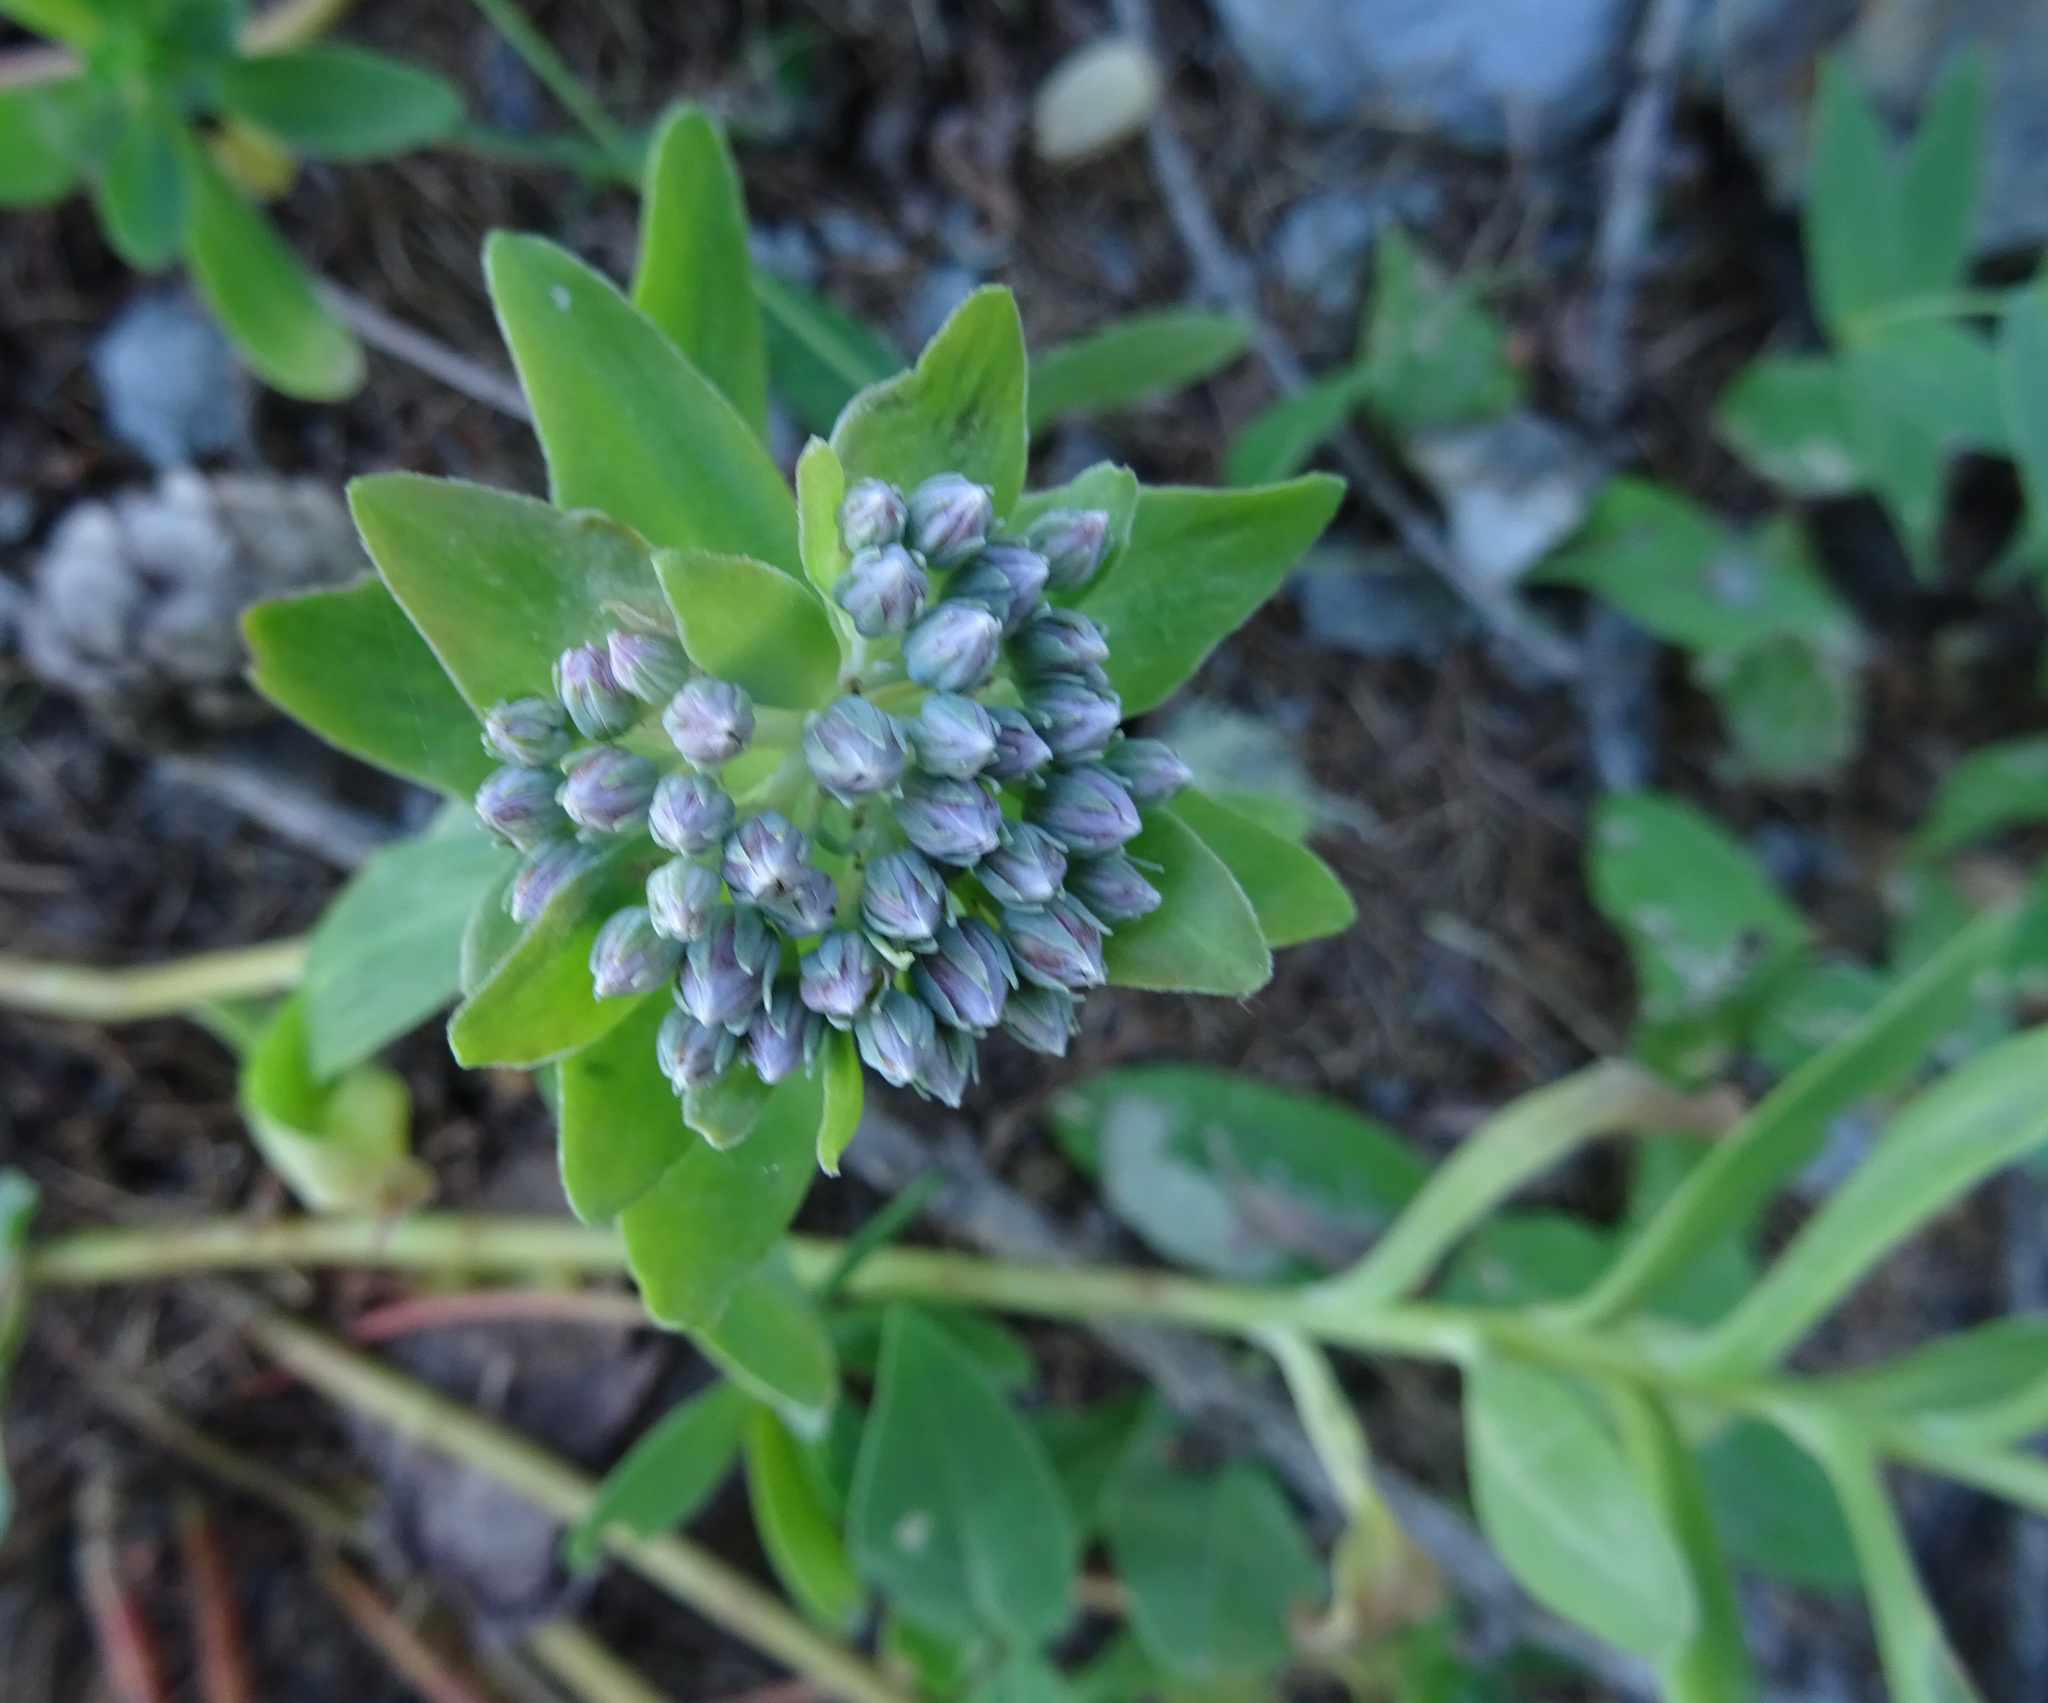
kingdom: Plantae
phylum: Tracheophyta
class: Magnoliopsida
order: Saxifragales
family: Crassulaceae
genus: Hylotelephium
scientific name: Hylotelephium anacampseros
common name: Love-restorer
